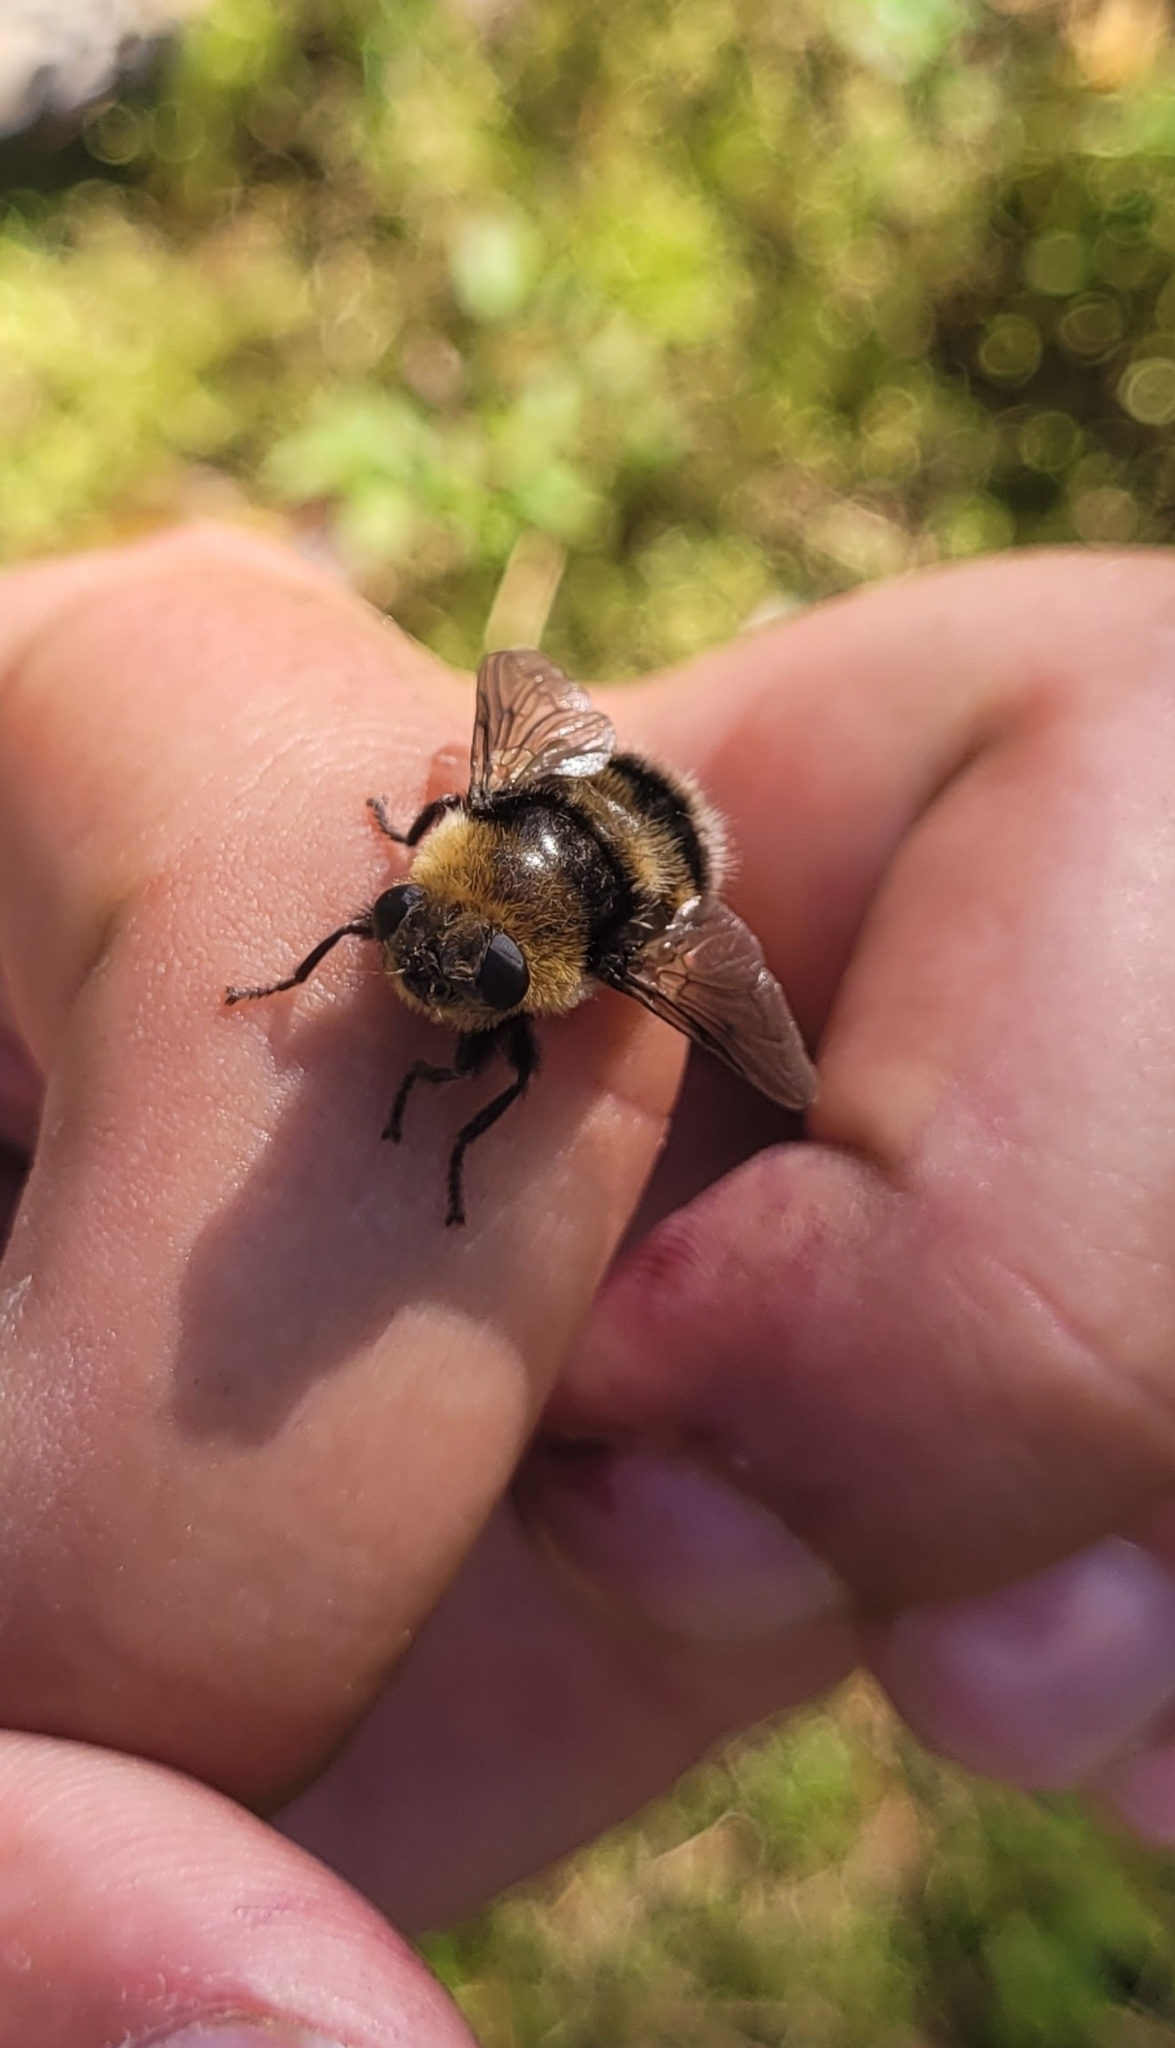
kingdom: Animalia
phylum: Arthropoda
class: Insecta
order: Diptera
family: Oestridae
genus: Cephenemyia
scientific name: Cephenemyia ulrichii
